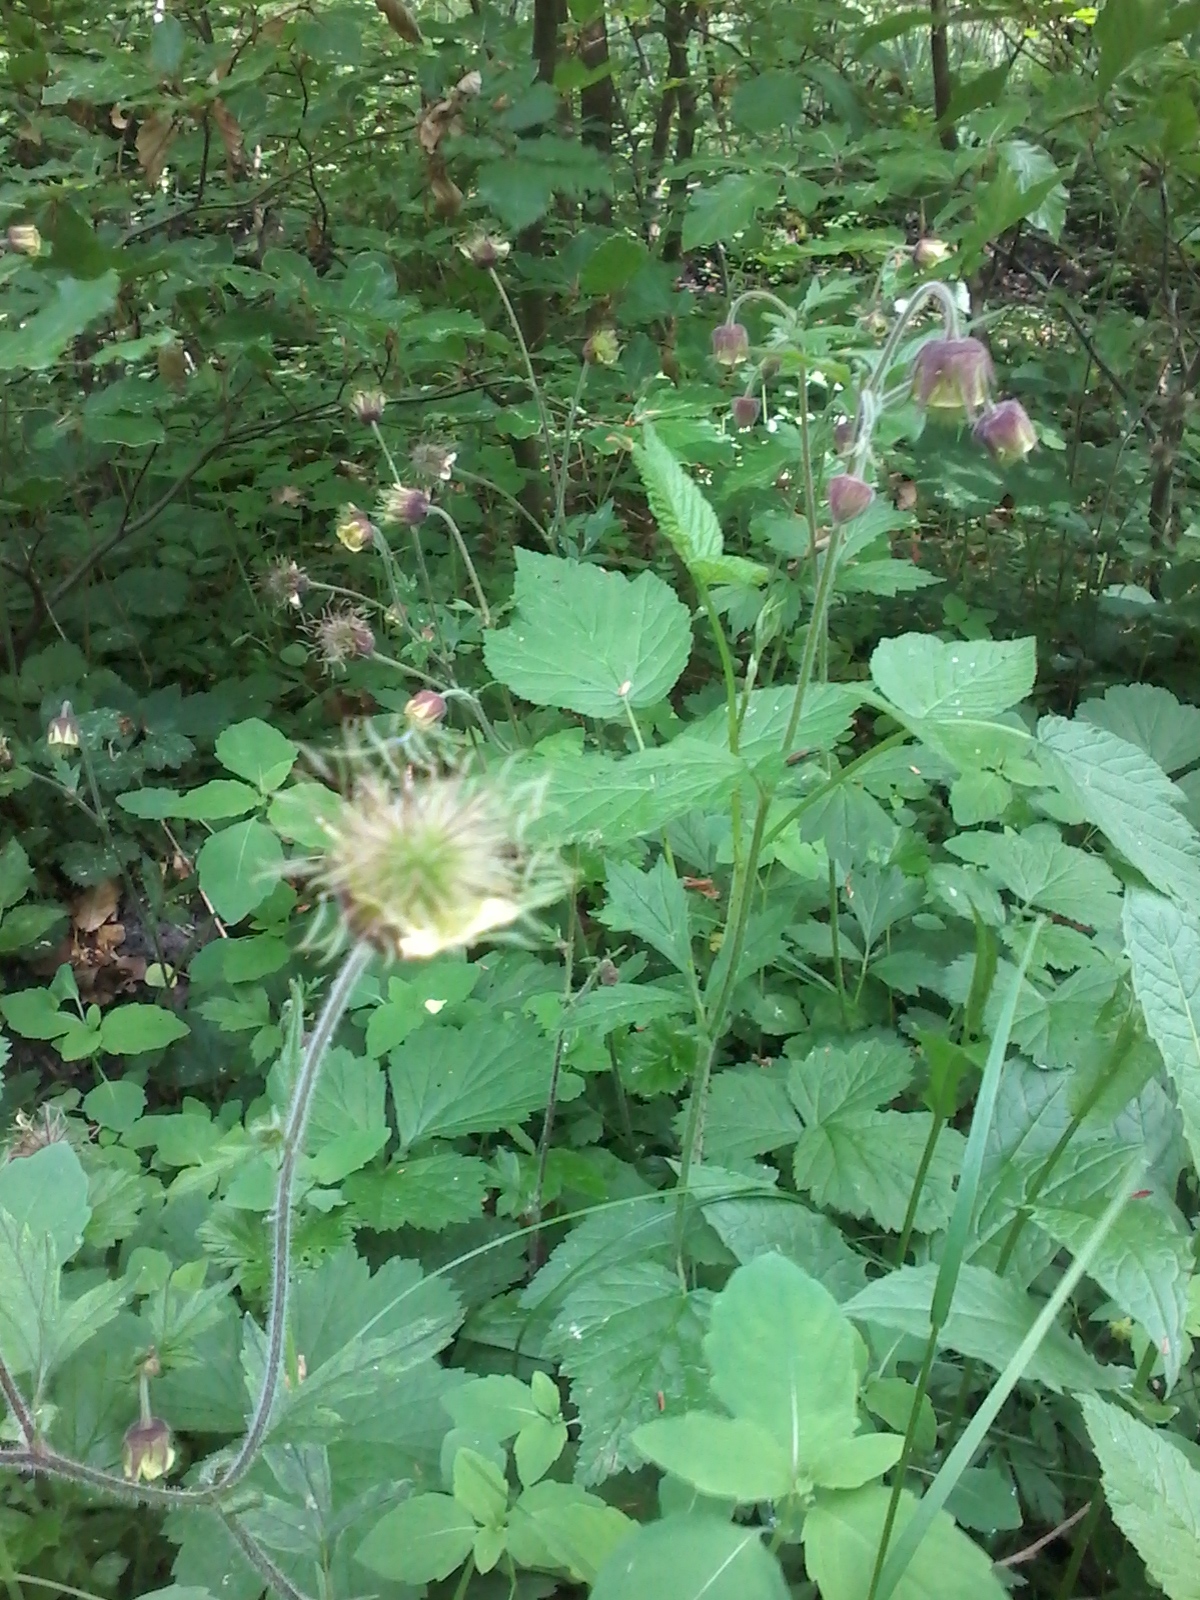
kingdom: Plantae
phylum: Tracheophyta
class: Magnoliopsida
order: Rosales
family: Rosaceae
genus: Geum
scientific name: Geum rivale
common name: Water avens
